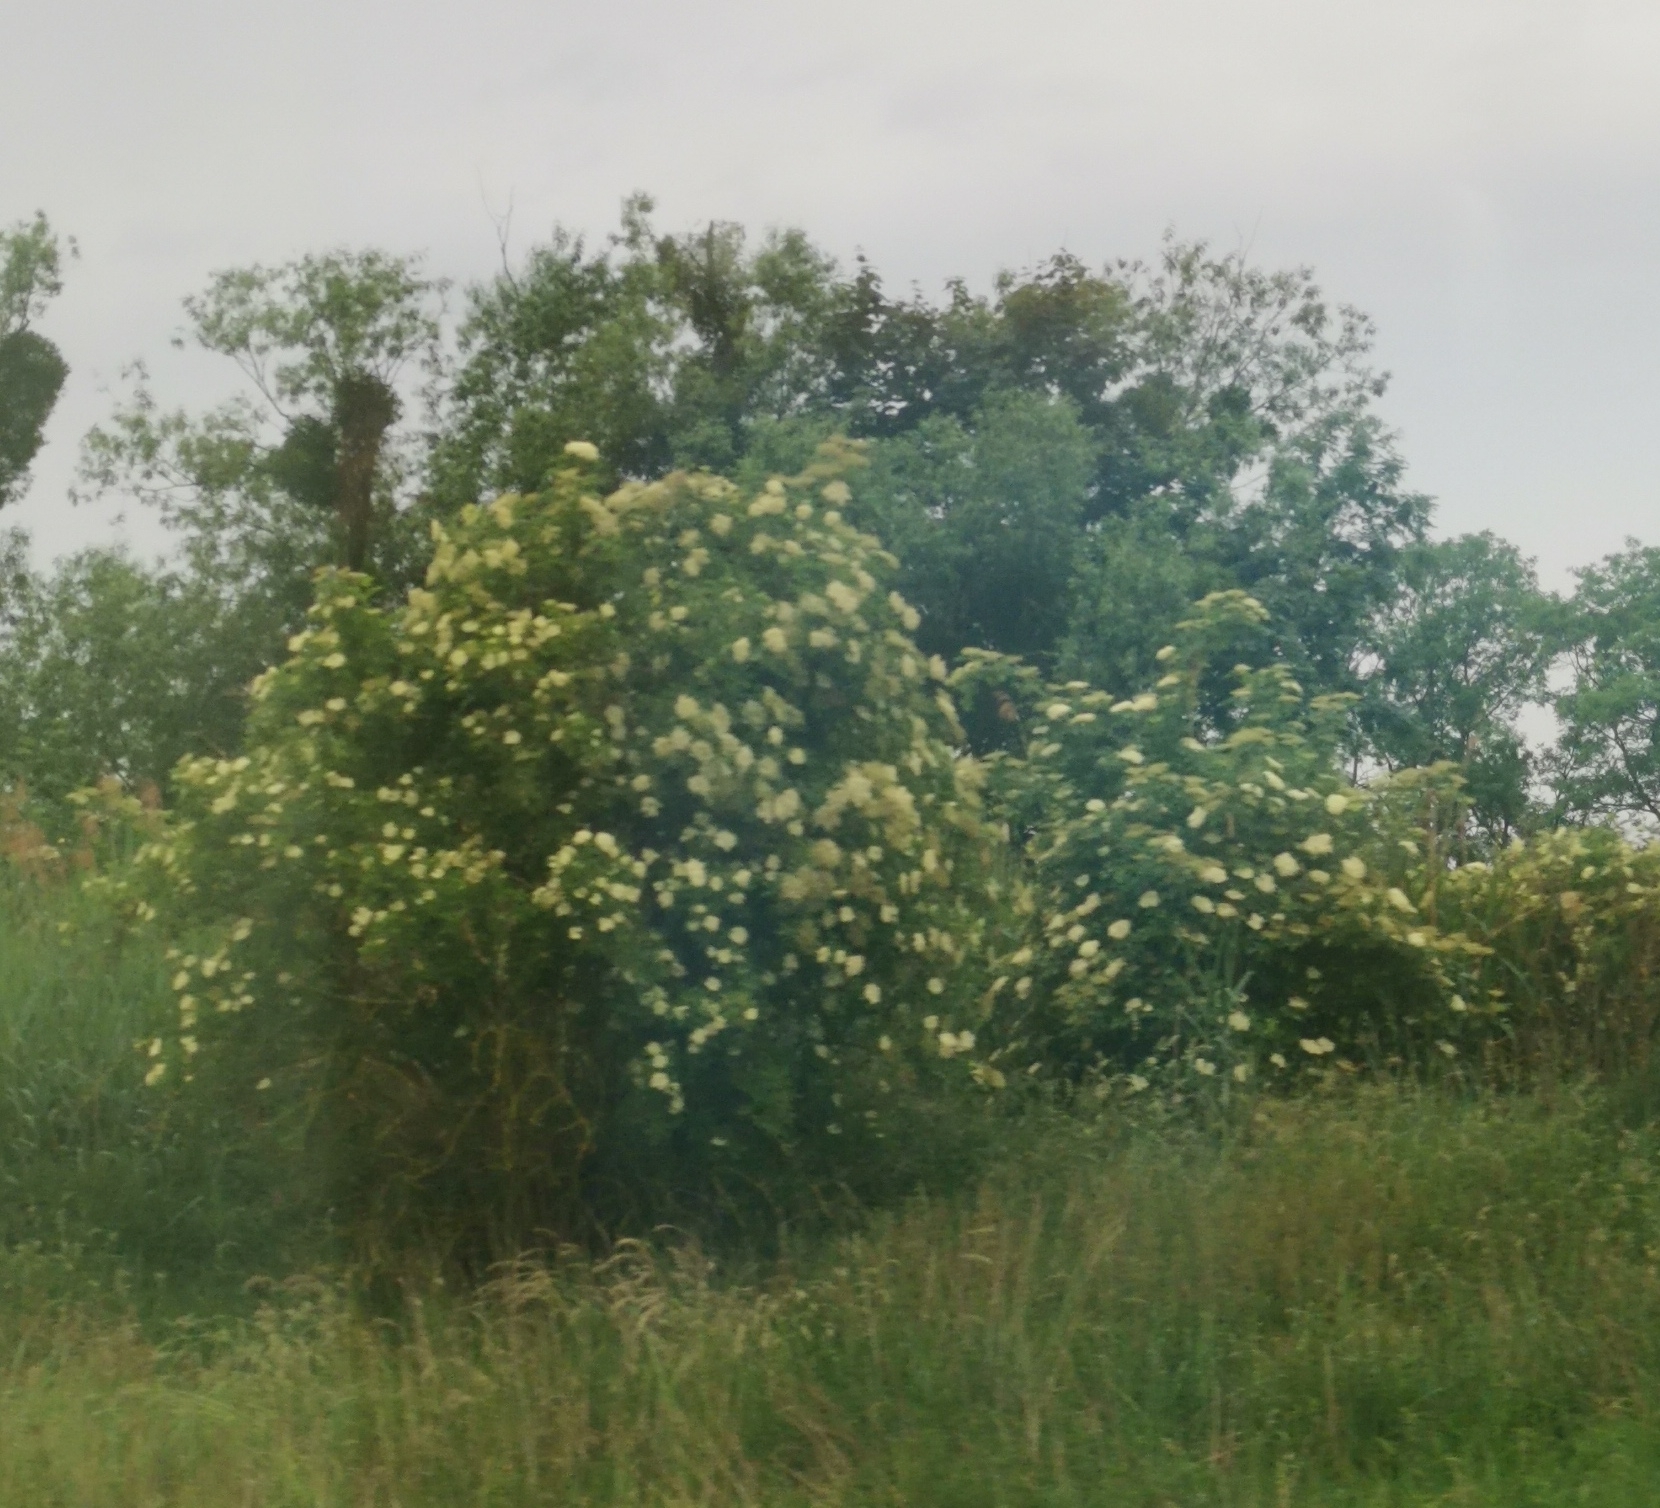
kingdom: Plantae
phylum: Tracheophyta
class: Magnoliopsida
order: Dipsacales
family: Viburnaceae
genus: Sambucus
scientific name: Sambucus nigra
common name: Elder
